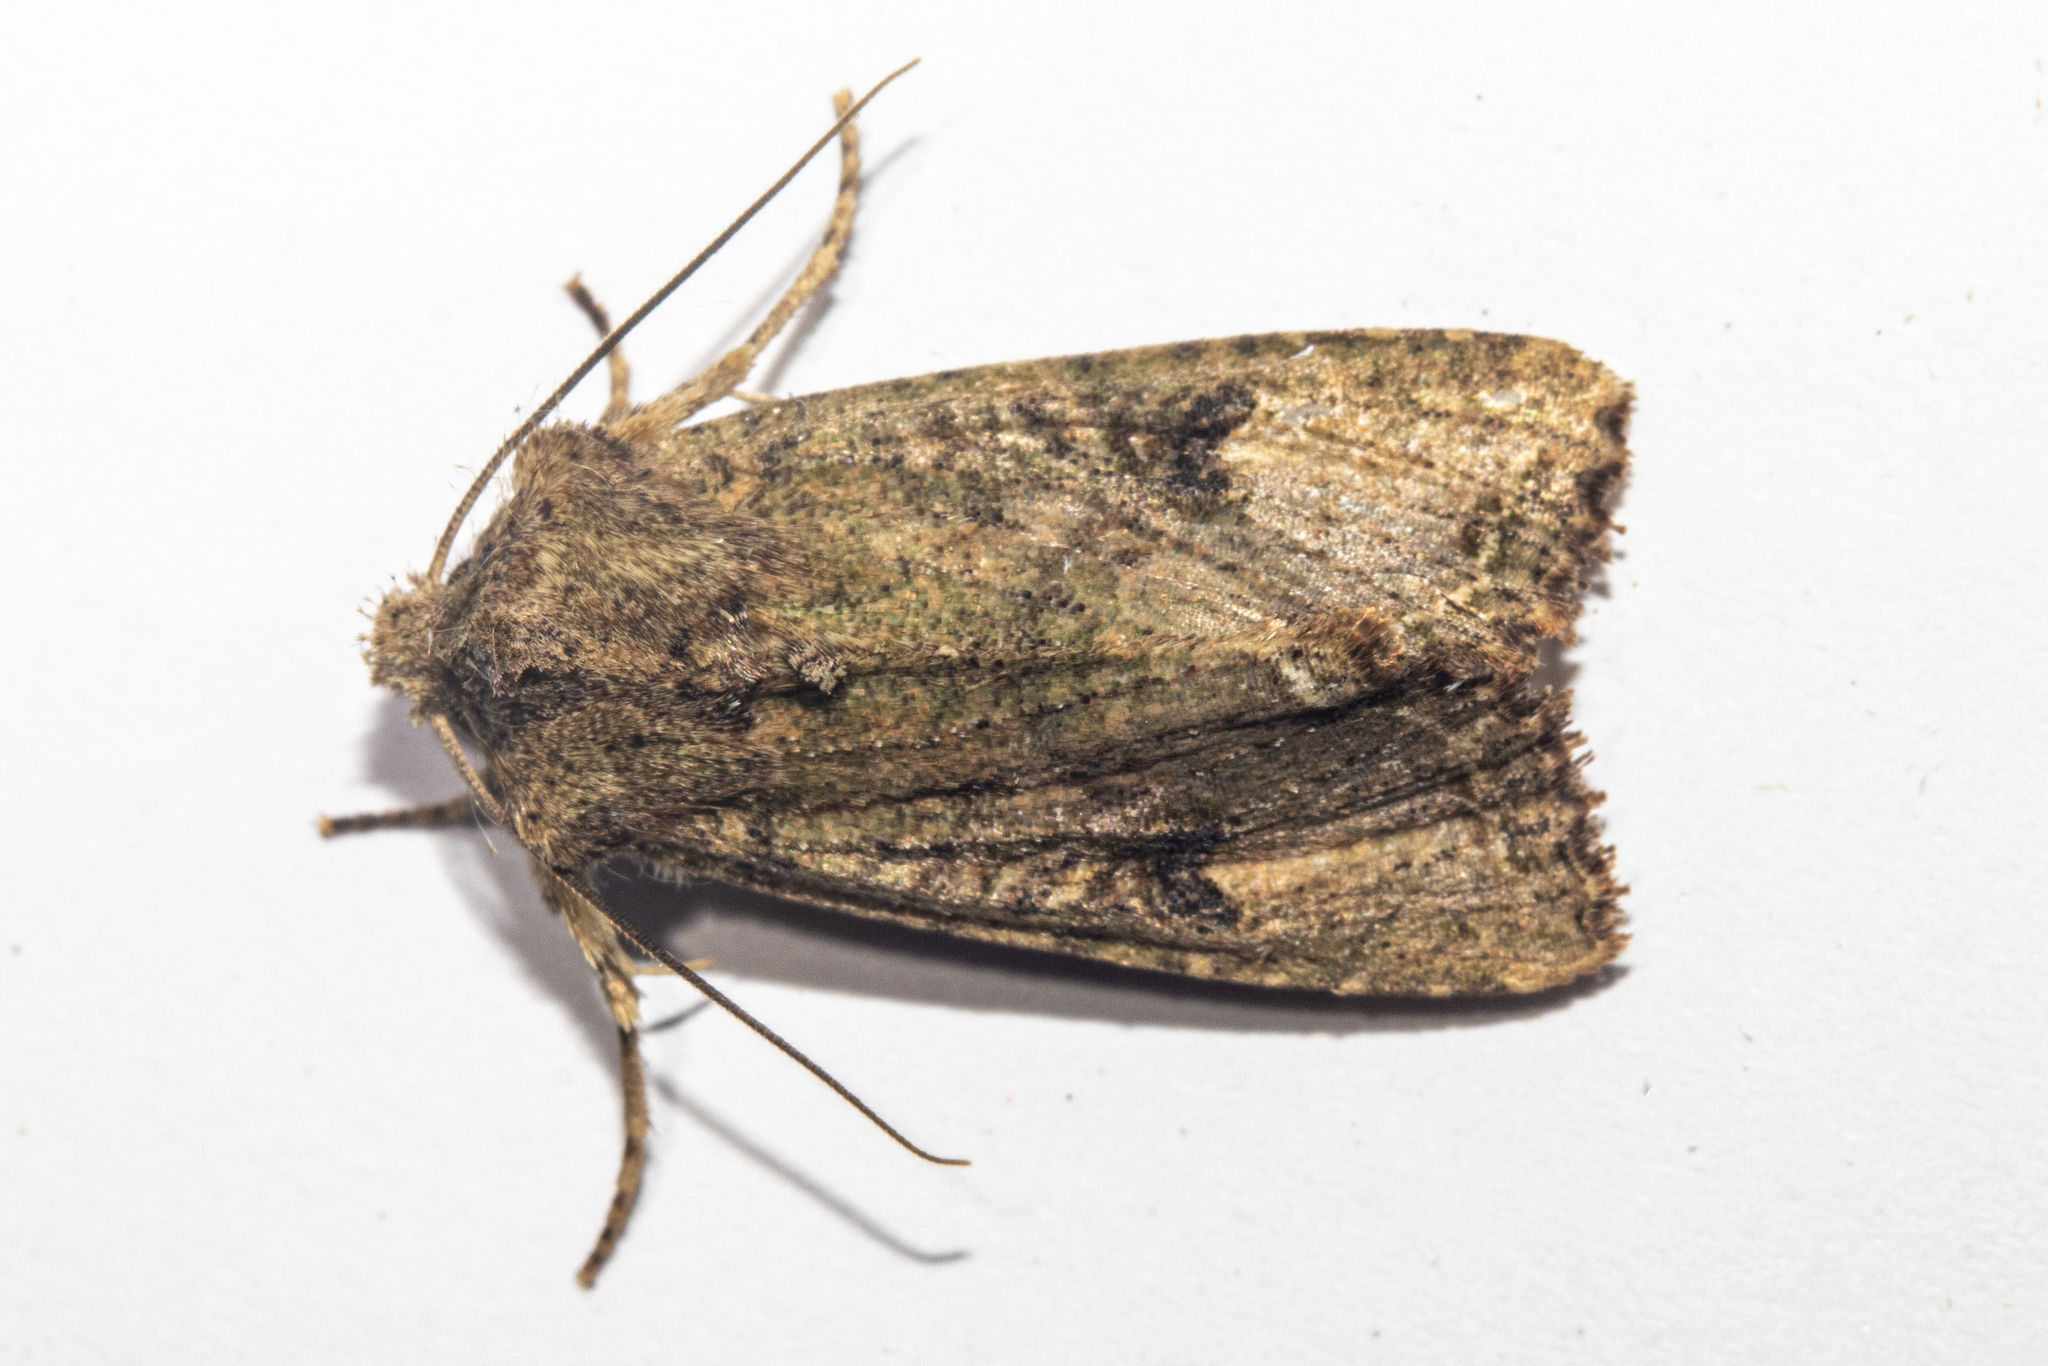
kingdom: Animalia
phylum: Arthropoda
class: Insecta
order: Lepidoptera
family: Noctuidae
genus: Meterana
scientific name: Meterana inchoata
